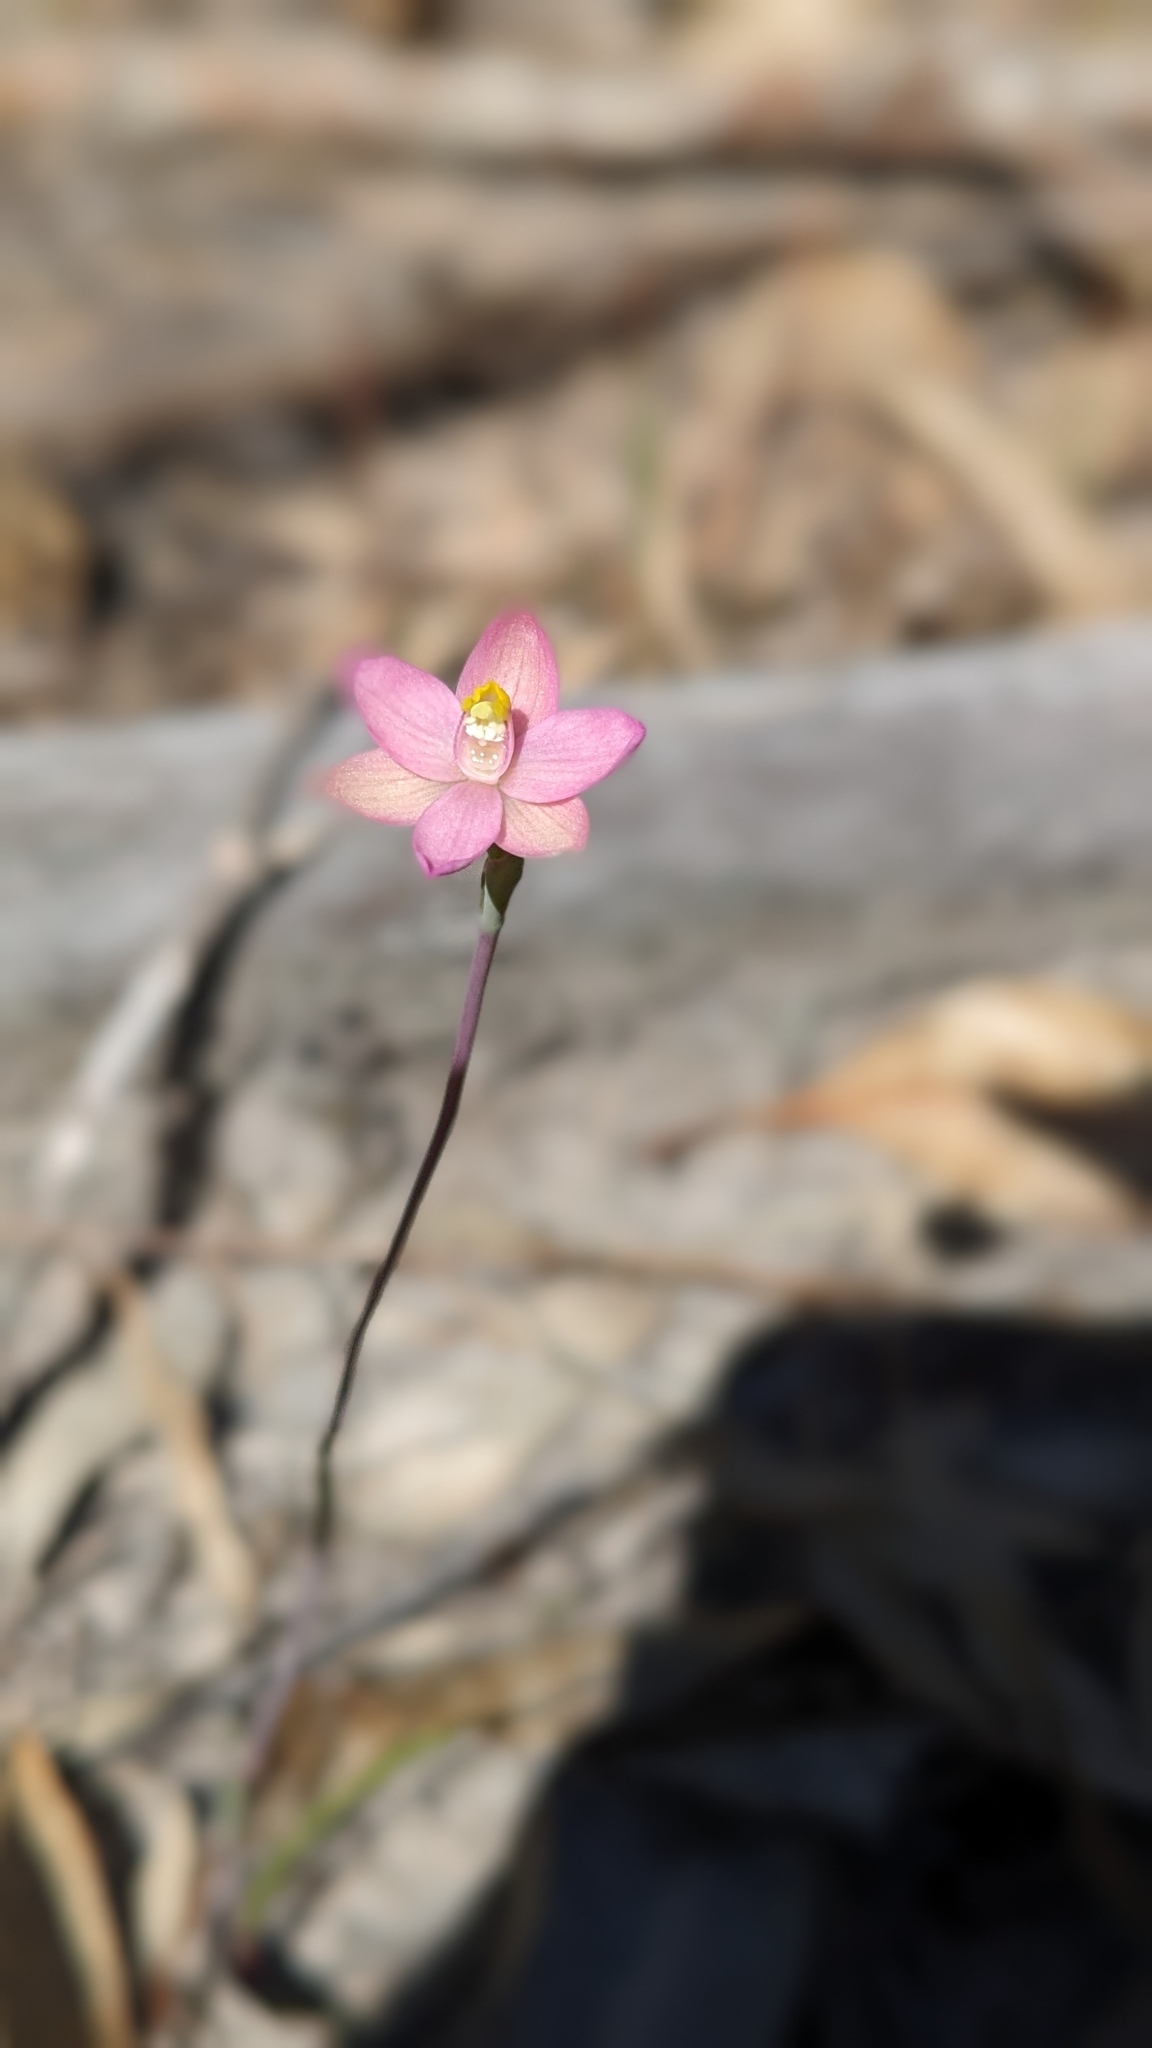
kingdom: Plantae
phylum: Tracheophyta
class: Liliopsida
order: Asparagales
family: Orchidaceae
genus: Thelymitra
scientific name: Thelymitra carnea
